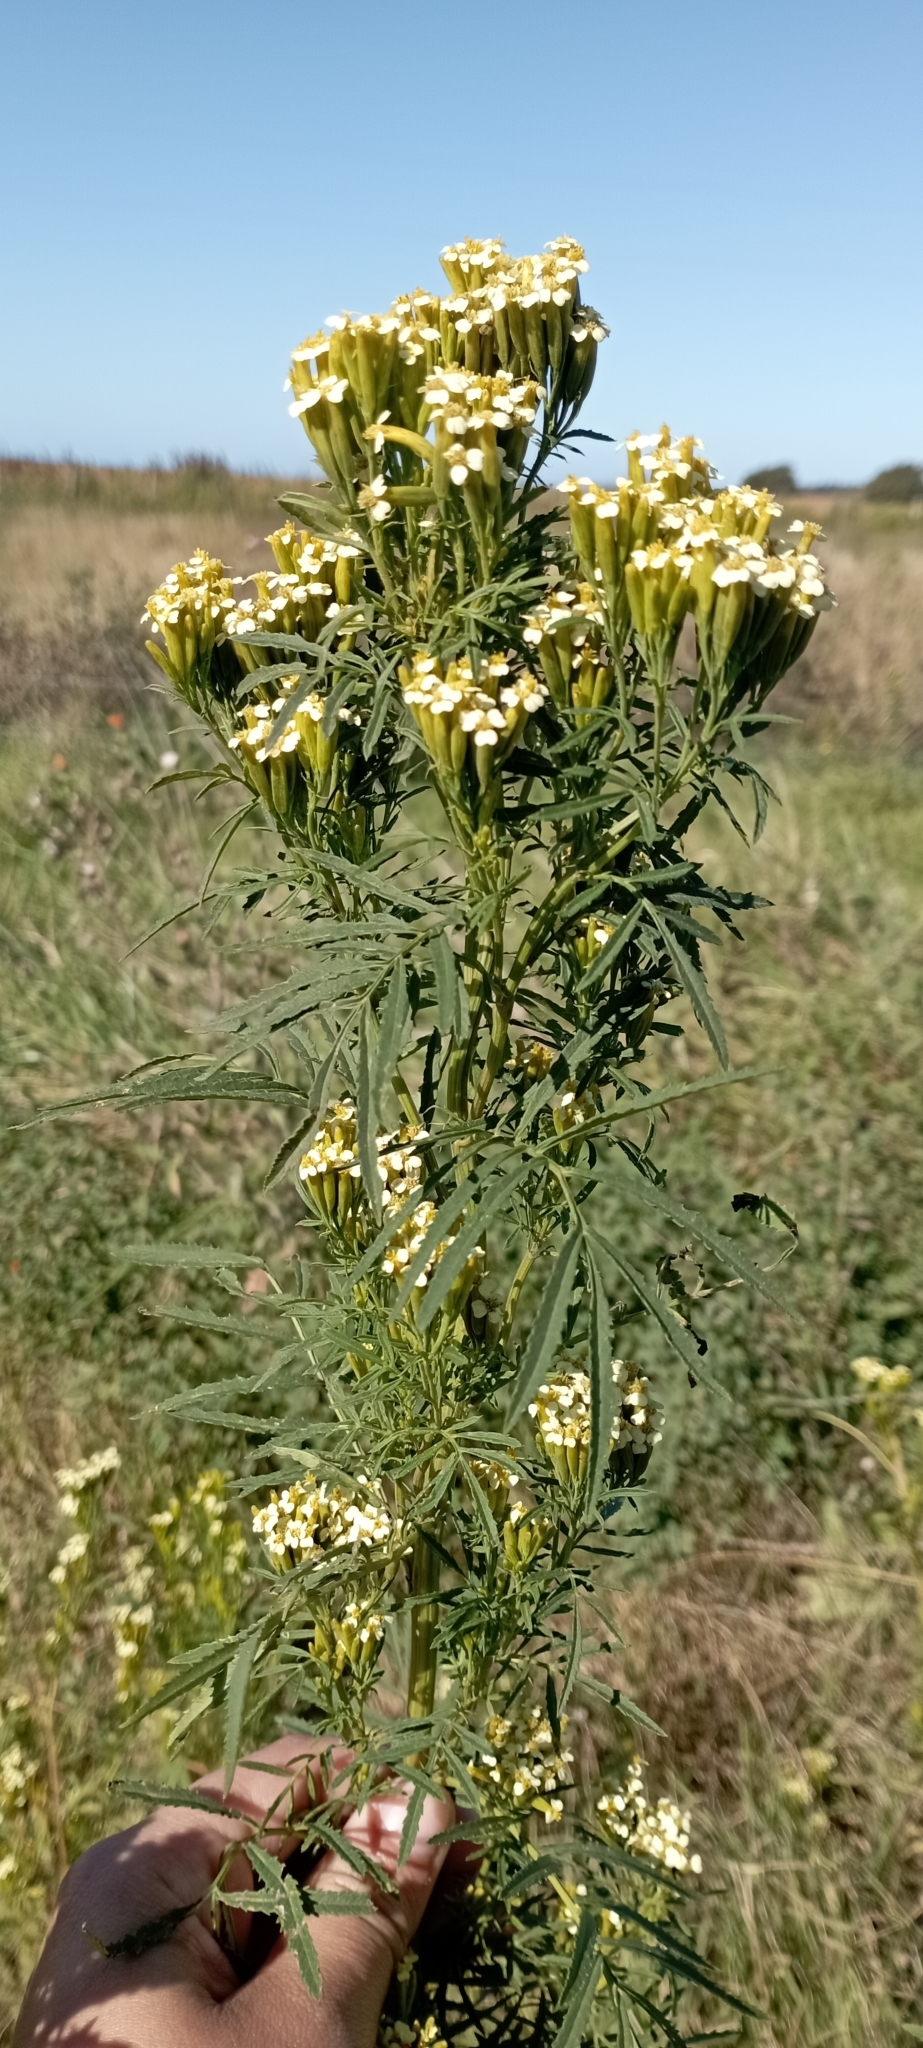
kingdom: Plantae
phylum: Tracheophyta
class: Magnoliopsida
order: Asterales
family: Asteraceae
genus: Tagetes
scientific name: Tagetes minuta
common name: Muster john henry
